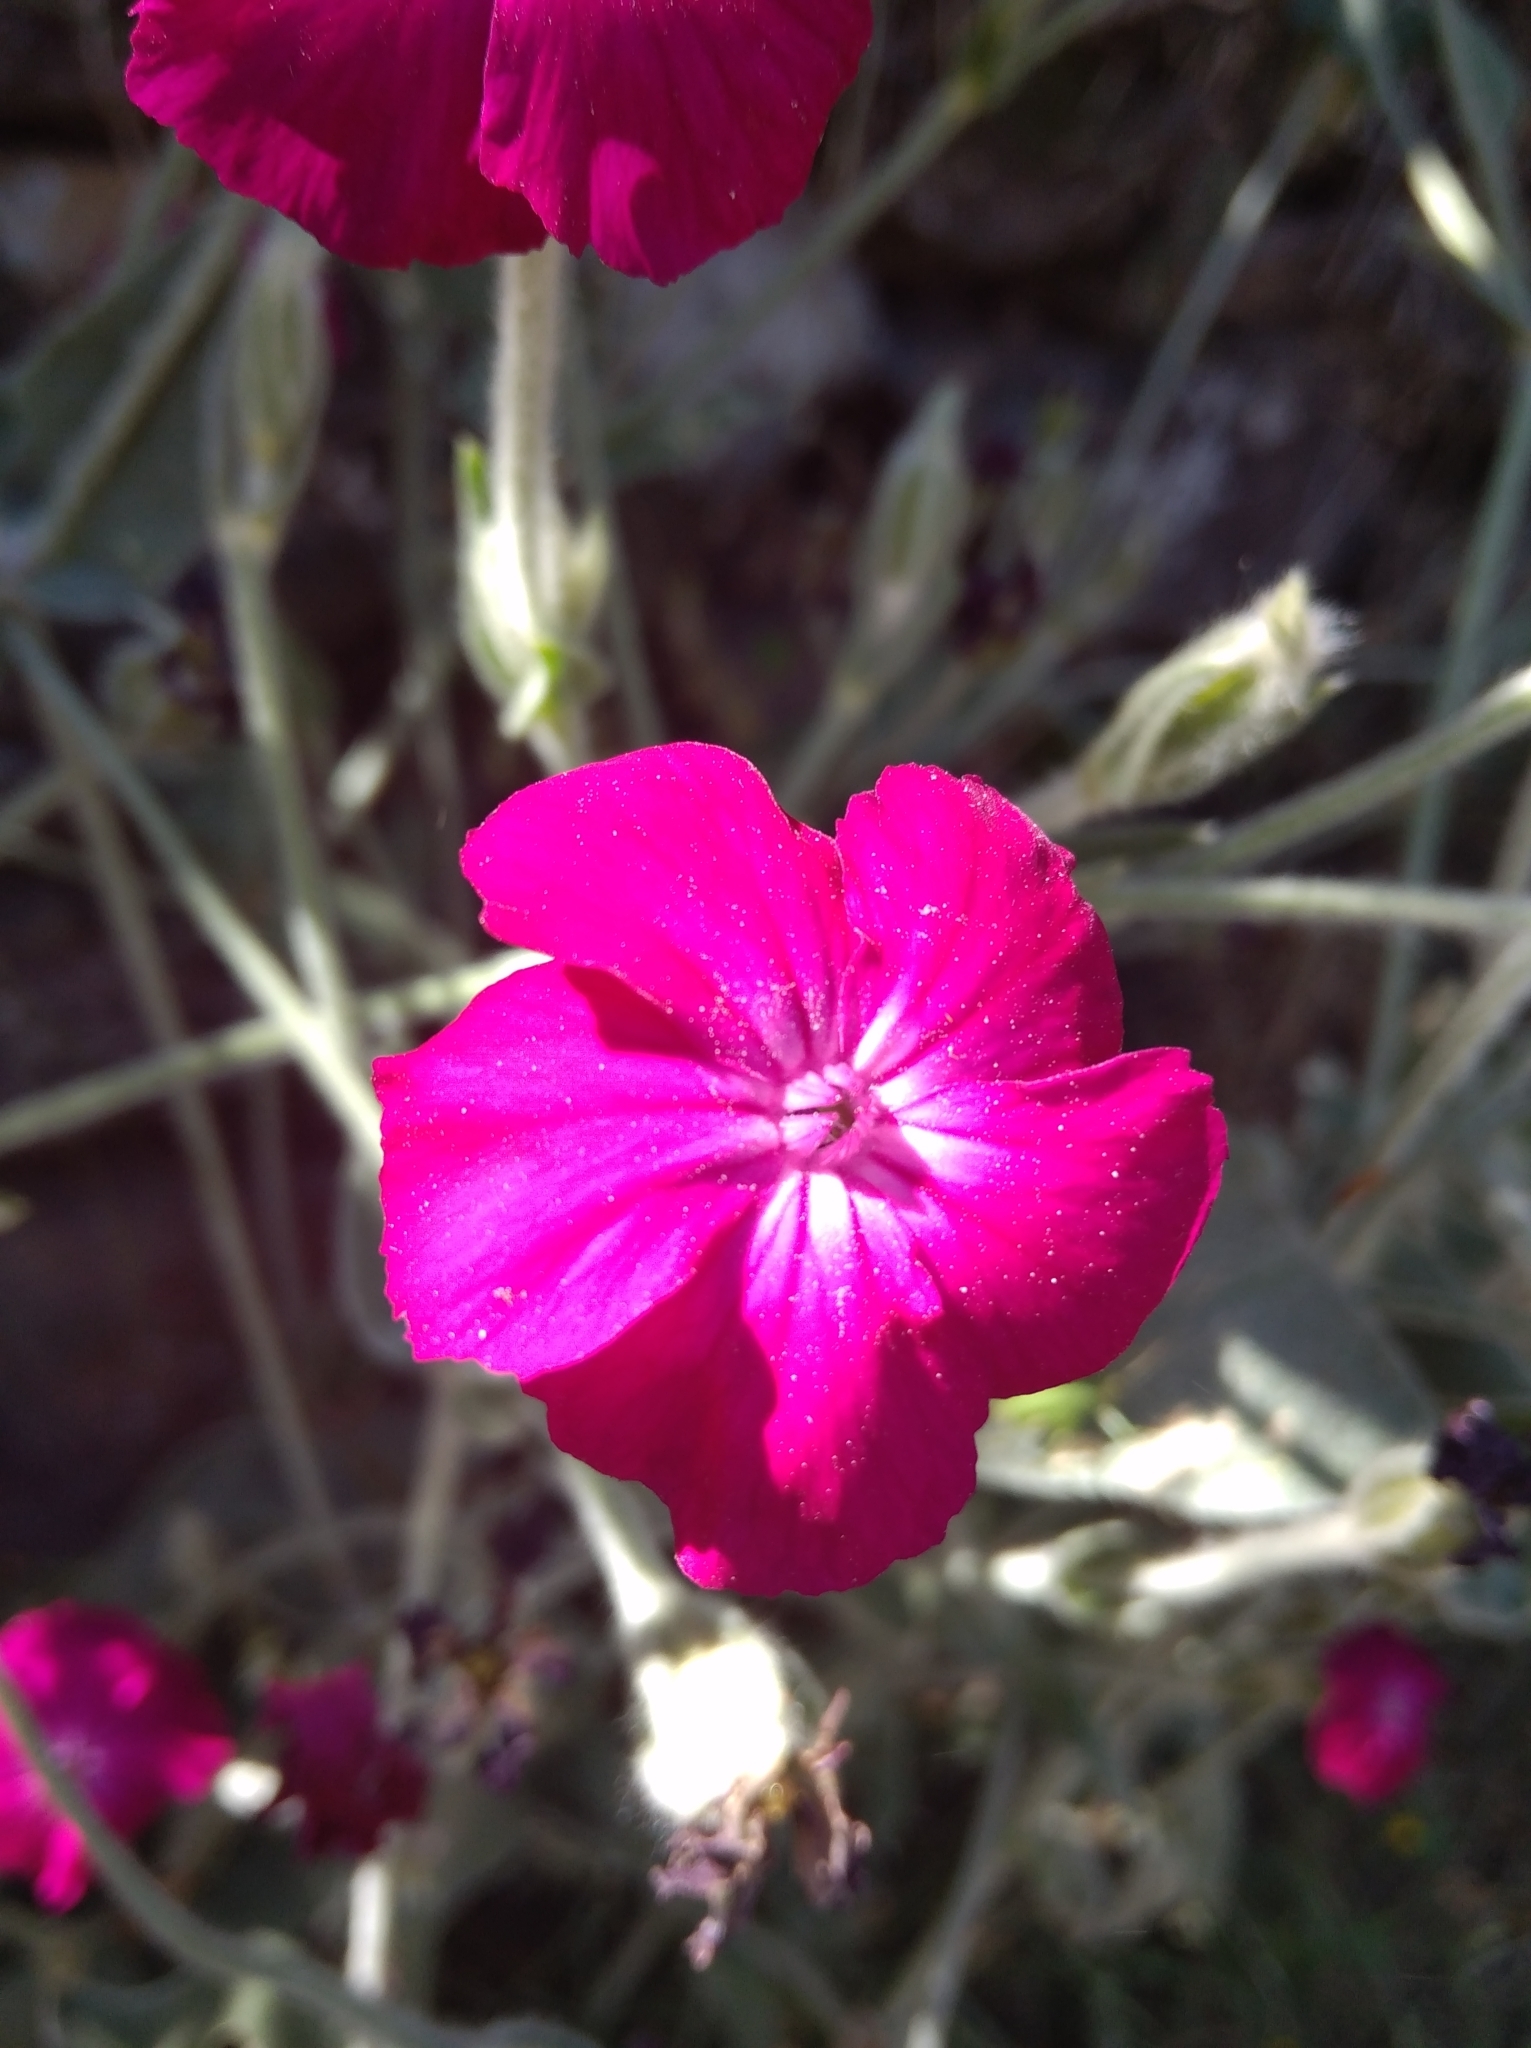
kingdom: Plantae
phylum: Tracheophyta
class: Magnoliopsida
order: Caryophyllales
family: Caryophyllaceae
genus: Silene
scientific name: Silene coronaria
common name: Rose campion
